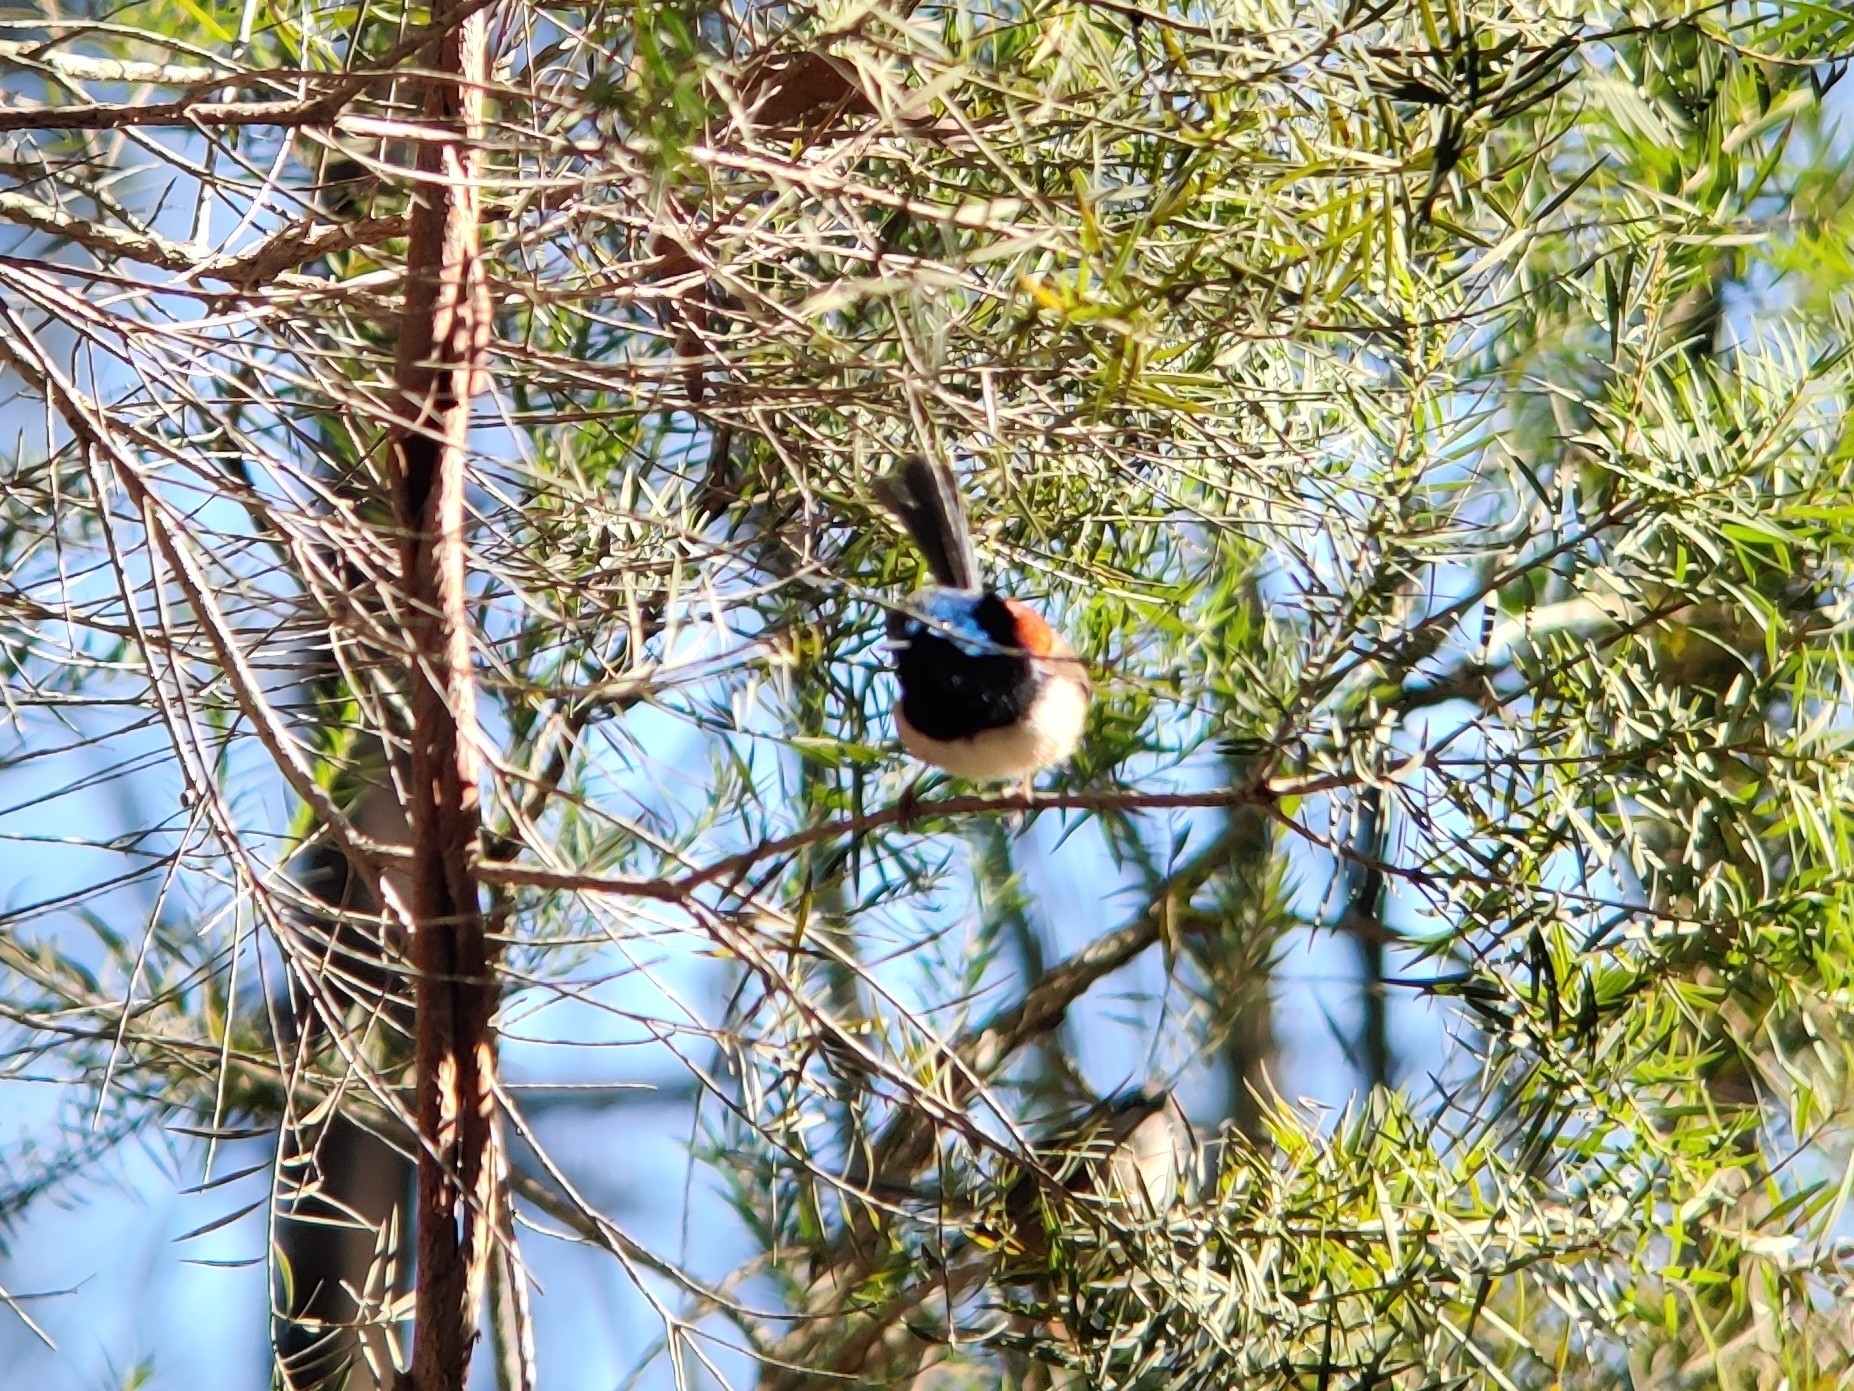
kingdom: Animalia
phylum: Chordata
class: Aves
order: Passeriformes
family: Maluridae
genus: Malurus
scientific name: Malurus lamberti
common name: Variegated fairywren
